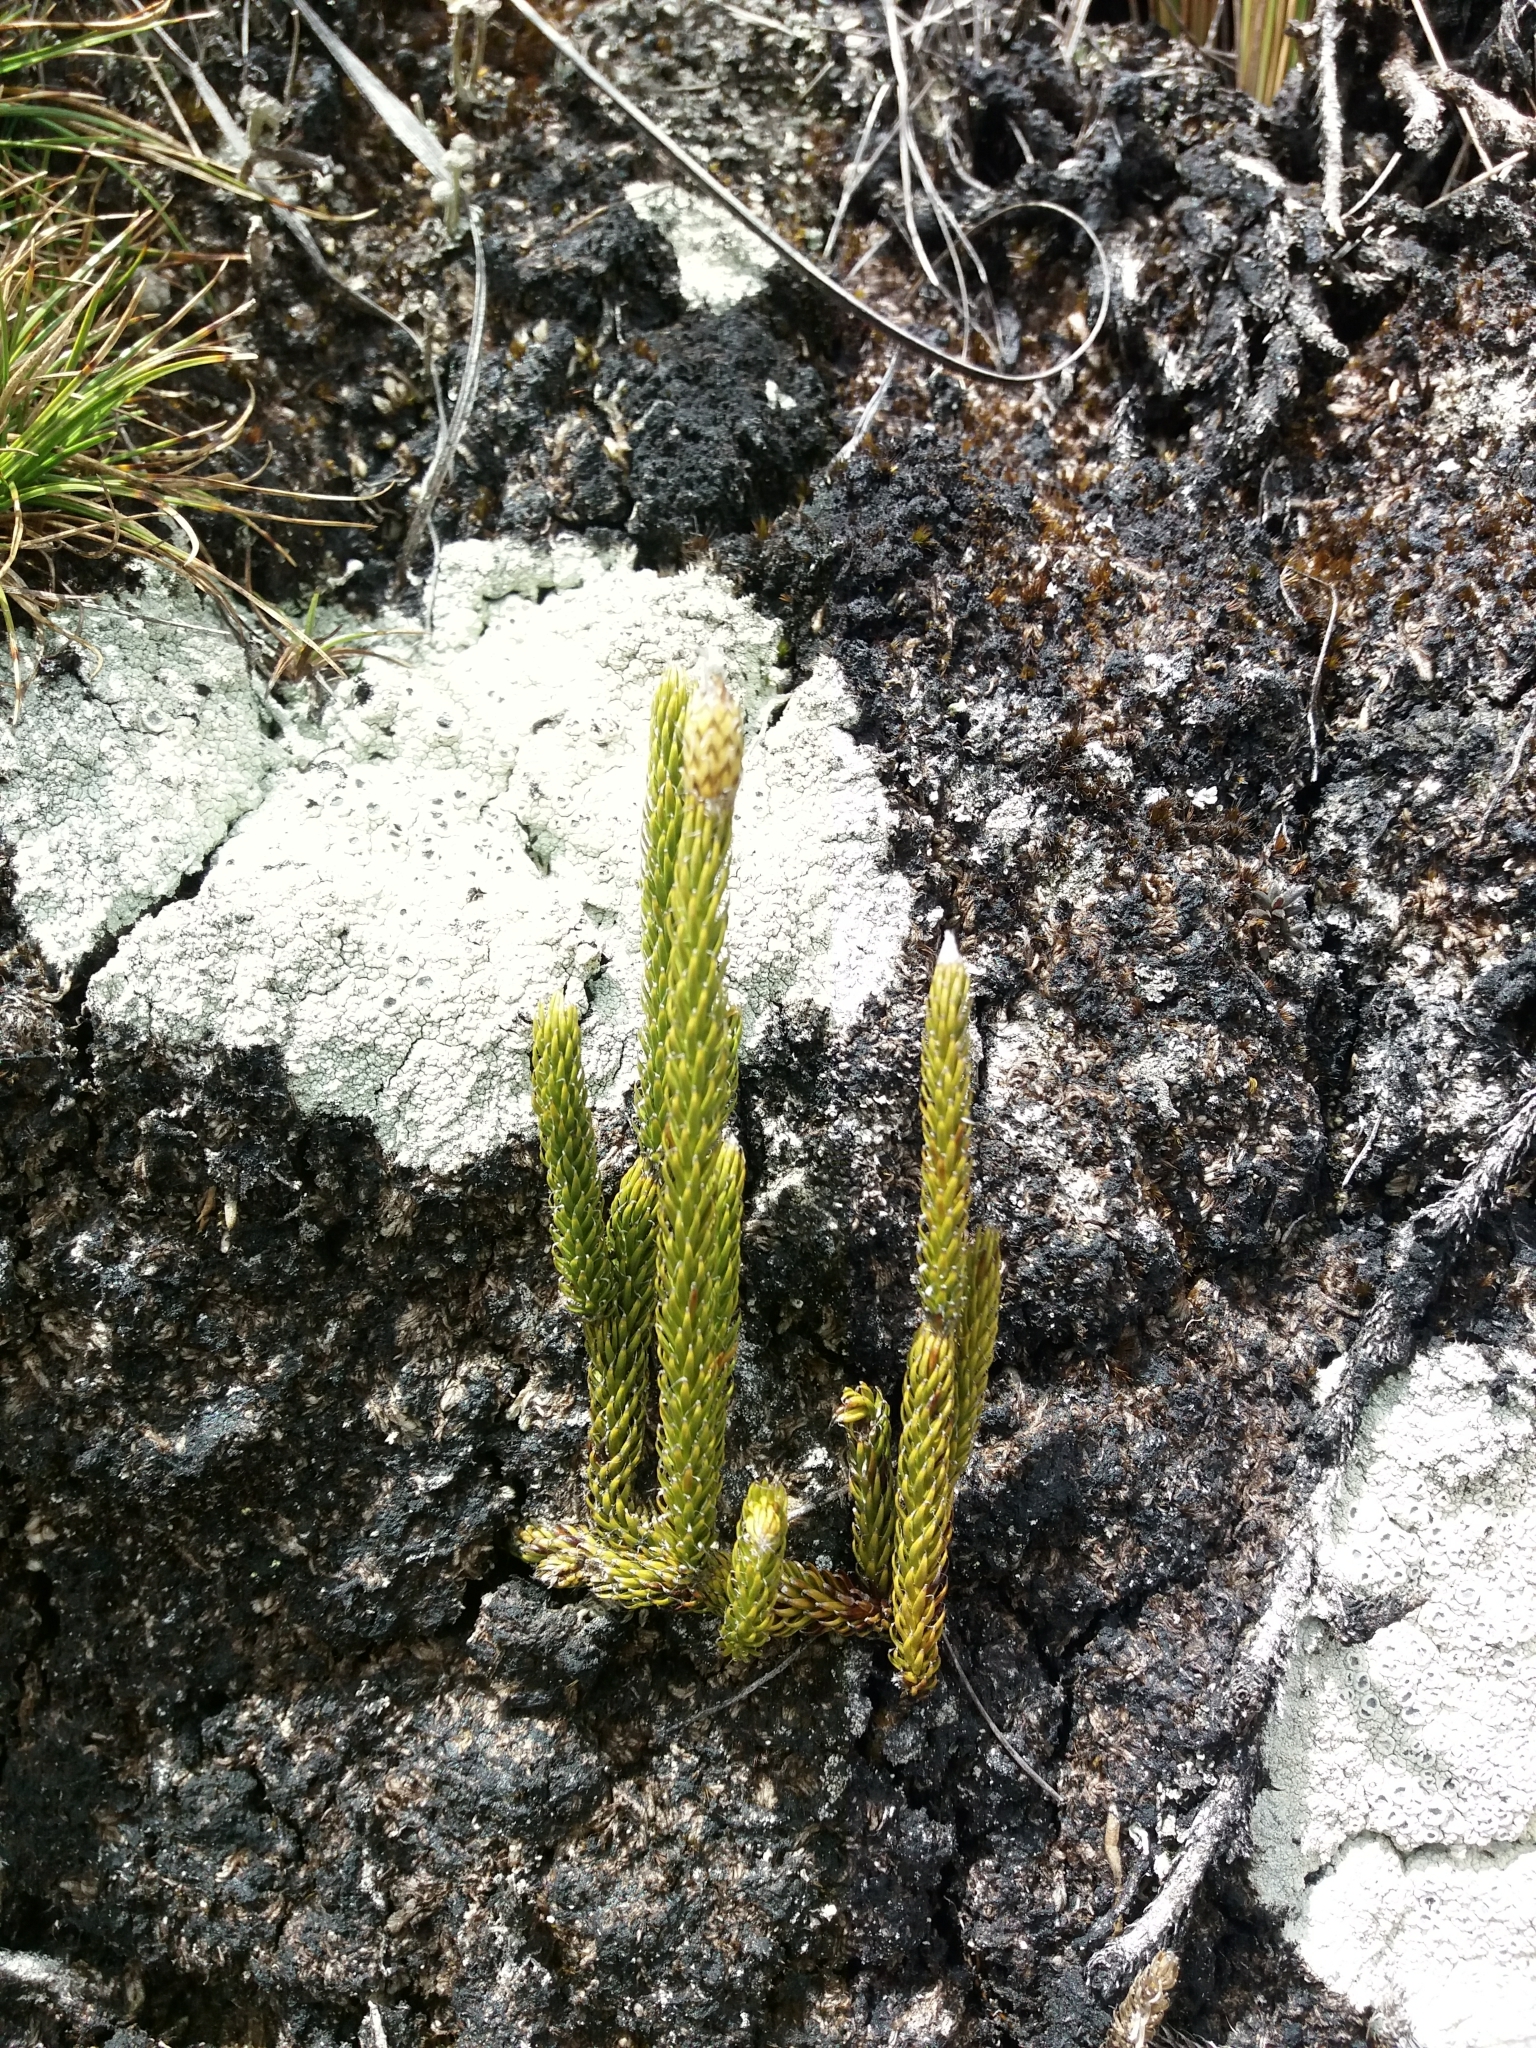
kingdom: Plantae
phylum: Tracheophyta
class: Lycopodiopsida
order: Lycopodiales
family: Lycopodiaceae
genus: Lycopodium
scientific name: Lycopodium clavatum
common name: Stag's-horn clubmoss
